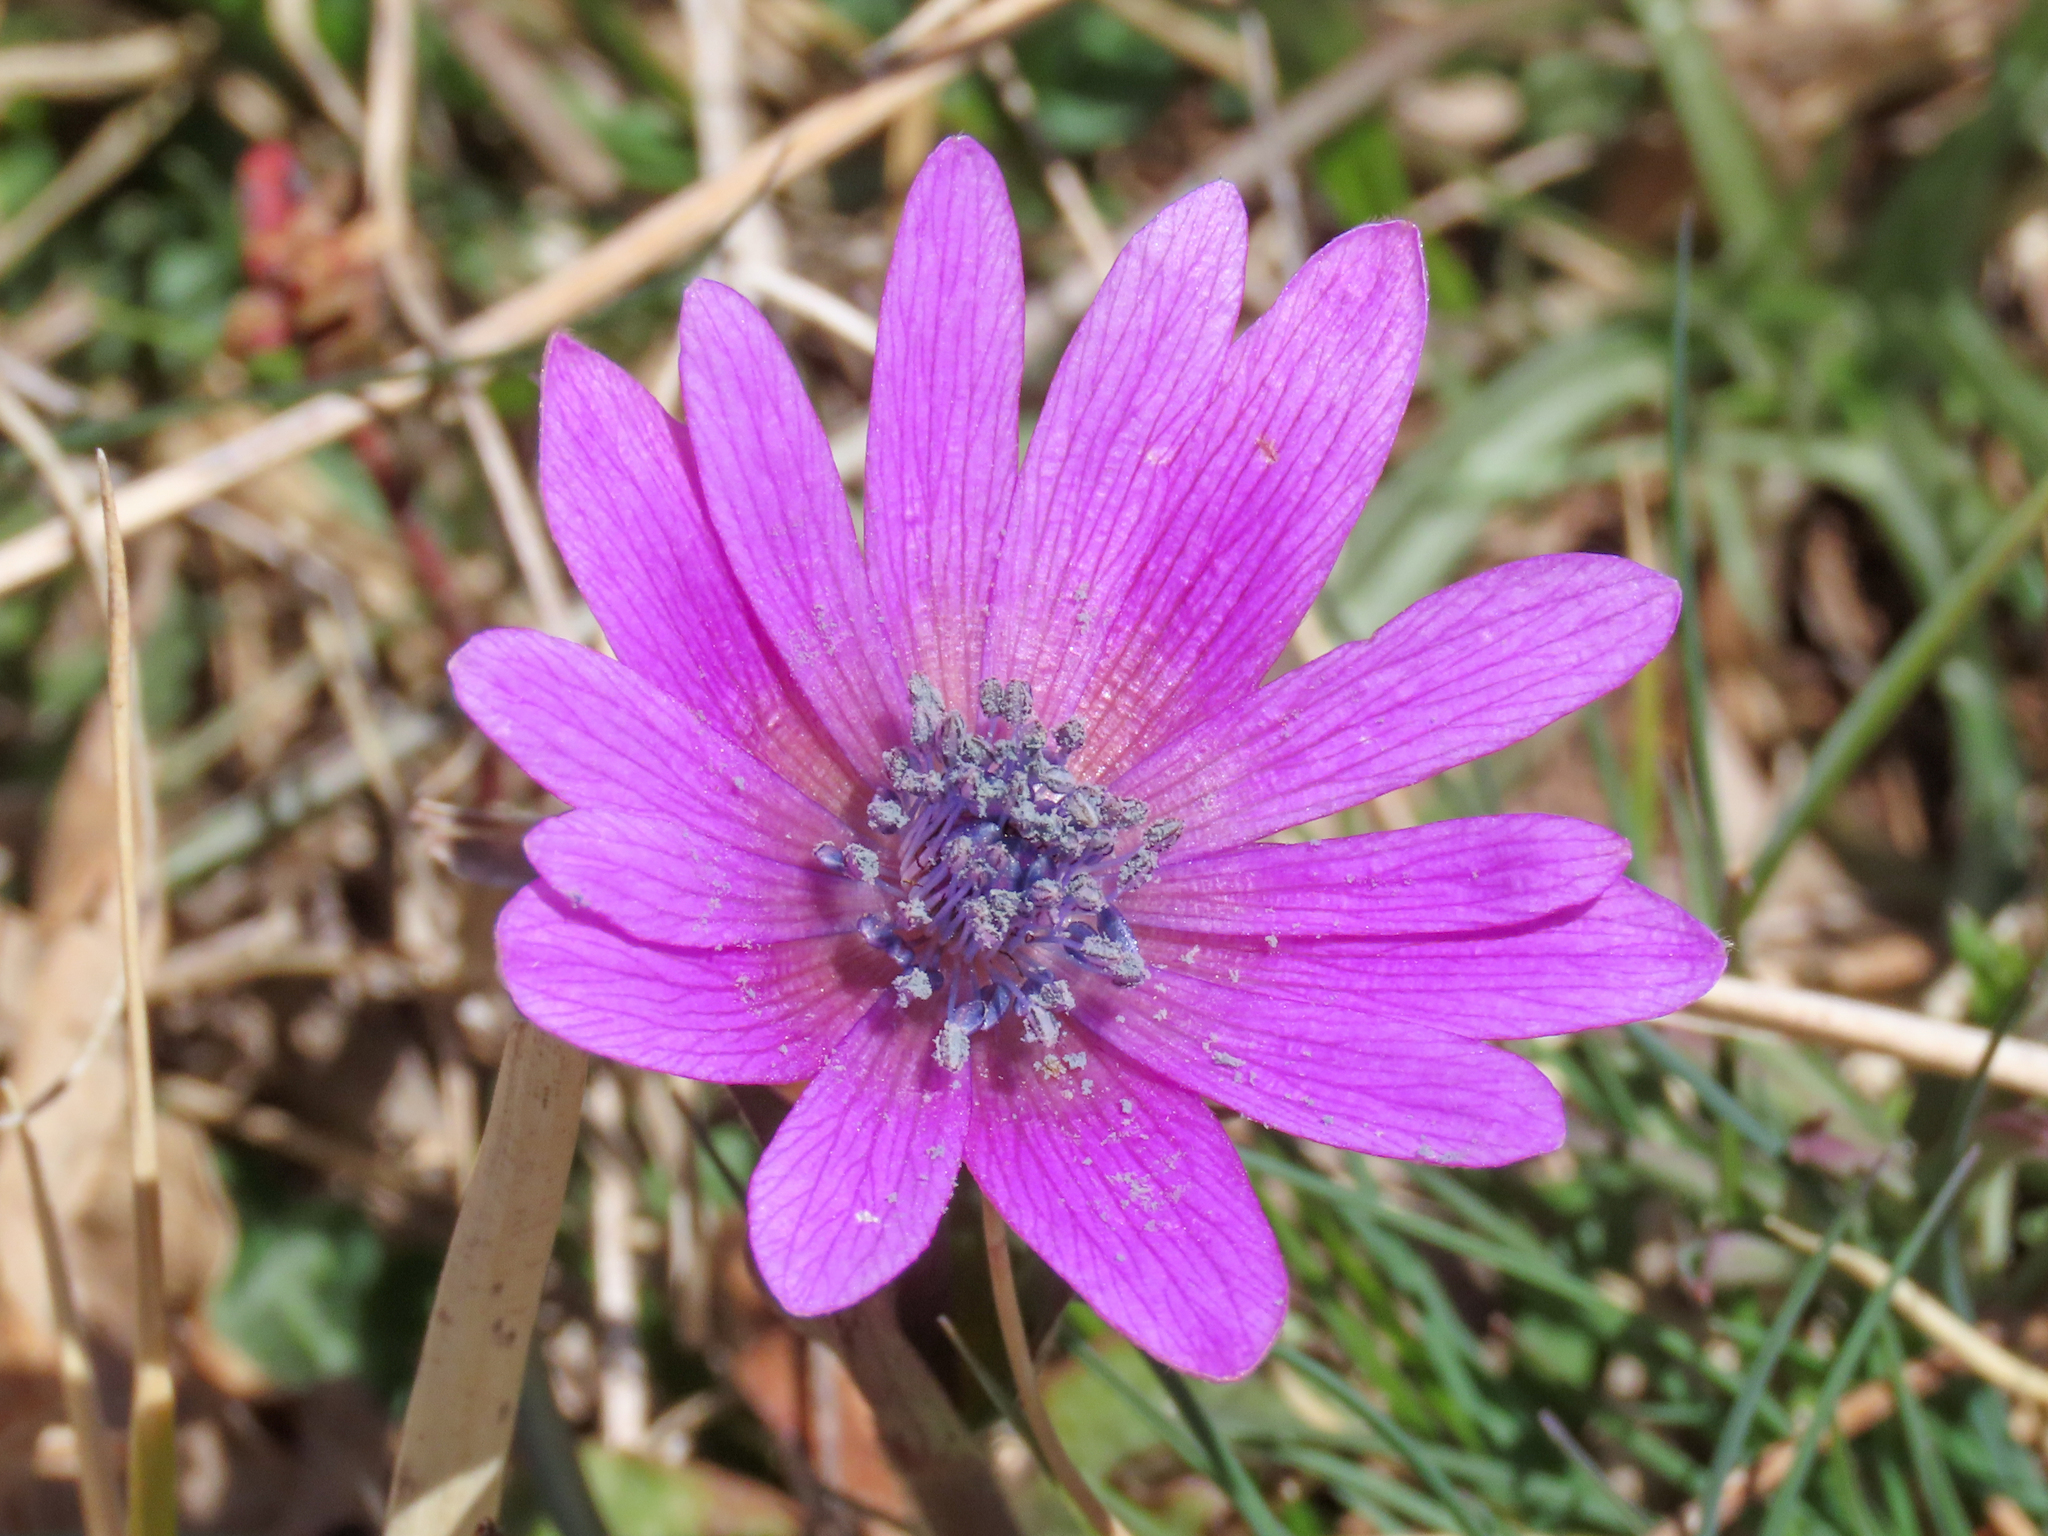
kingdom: Plantae
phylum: Tracheophyta
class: Magnoliopsida
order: Ranunculales
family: Ranunculaceae
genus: Anemone
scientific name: Anemone hortensis
